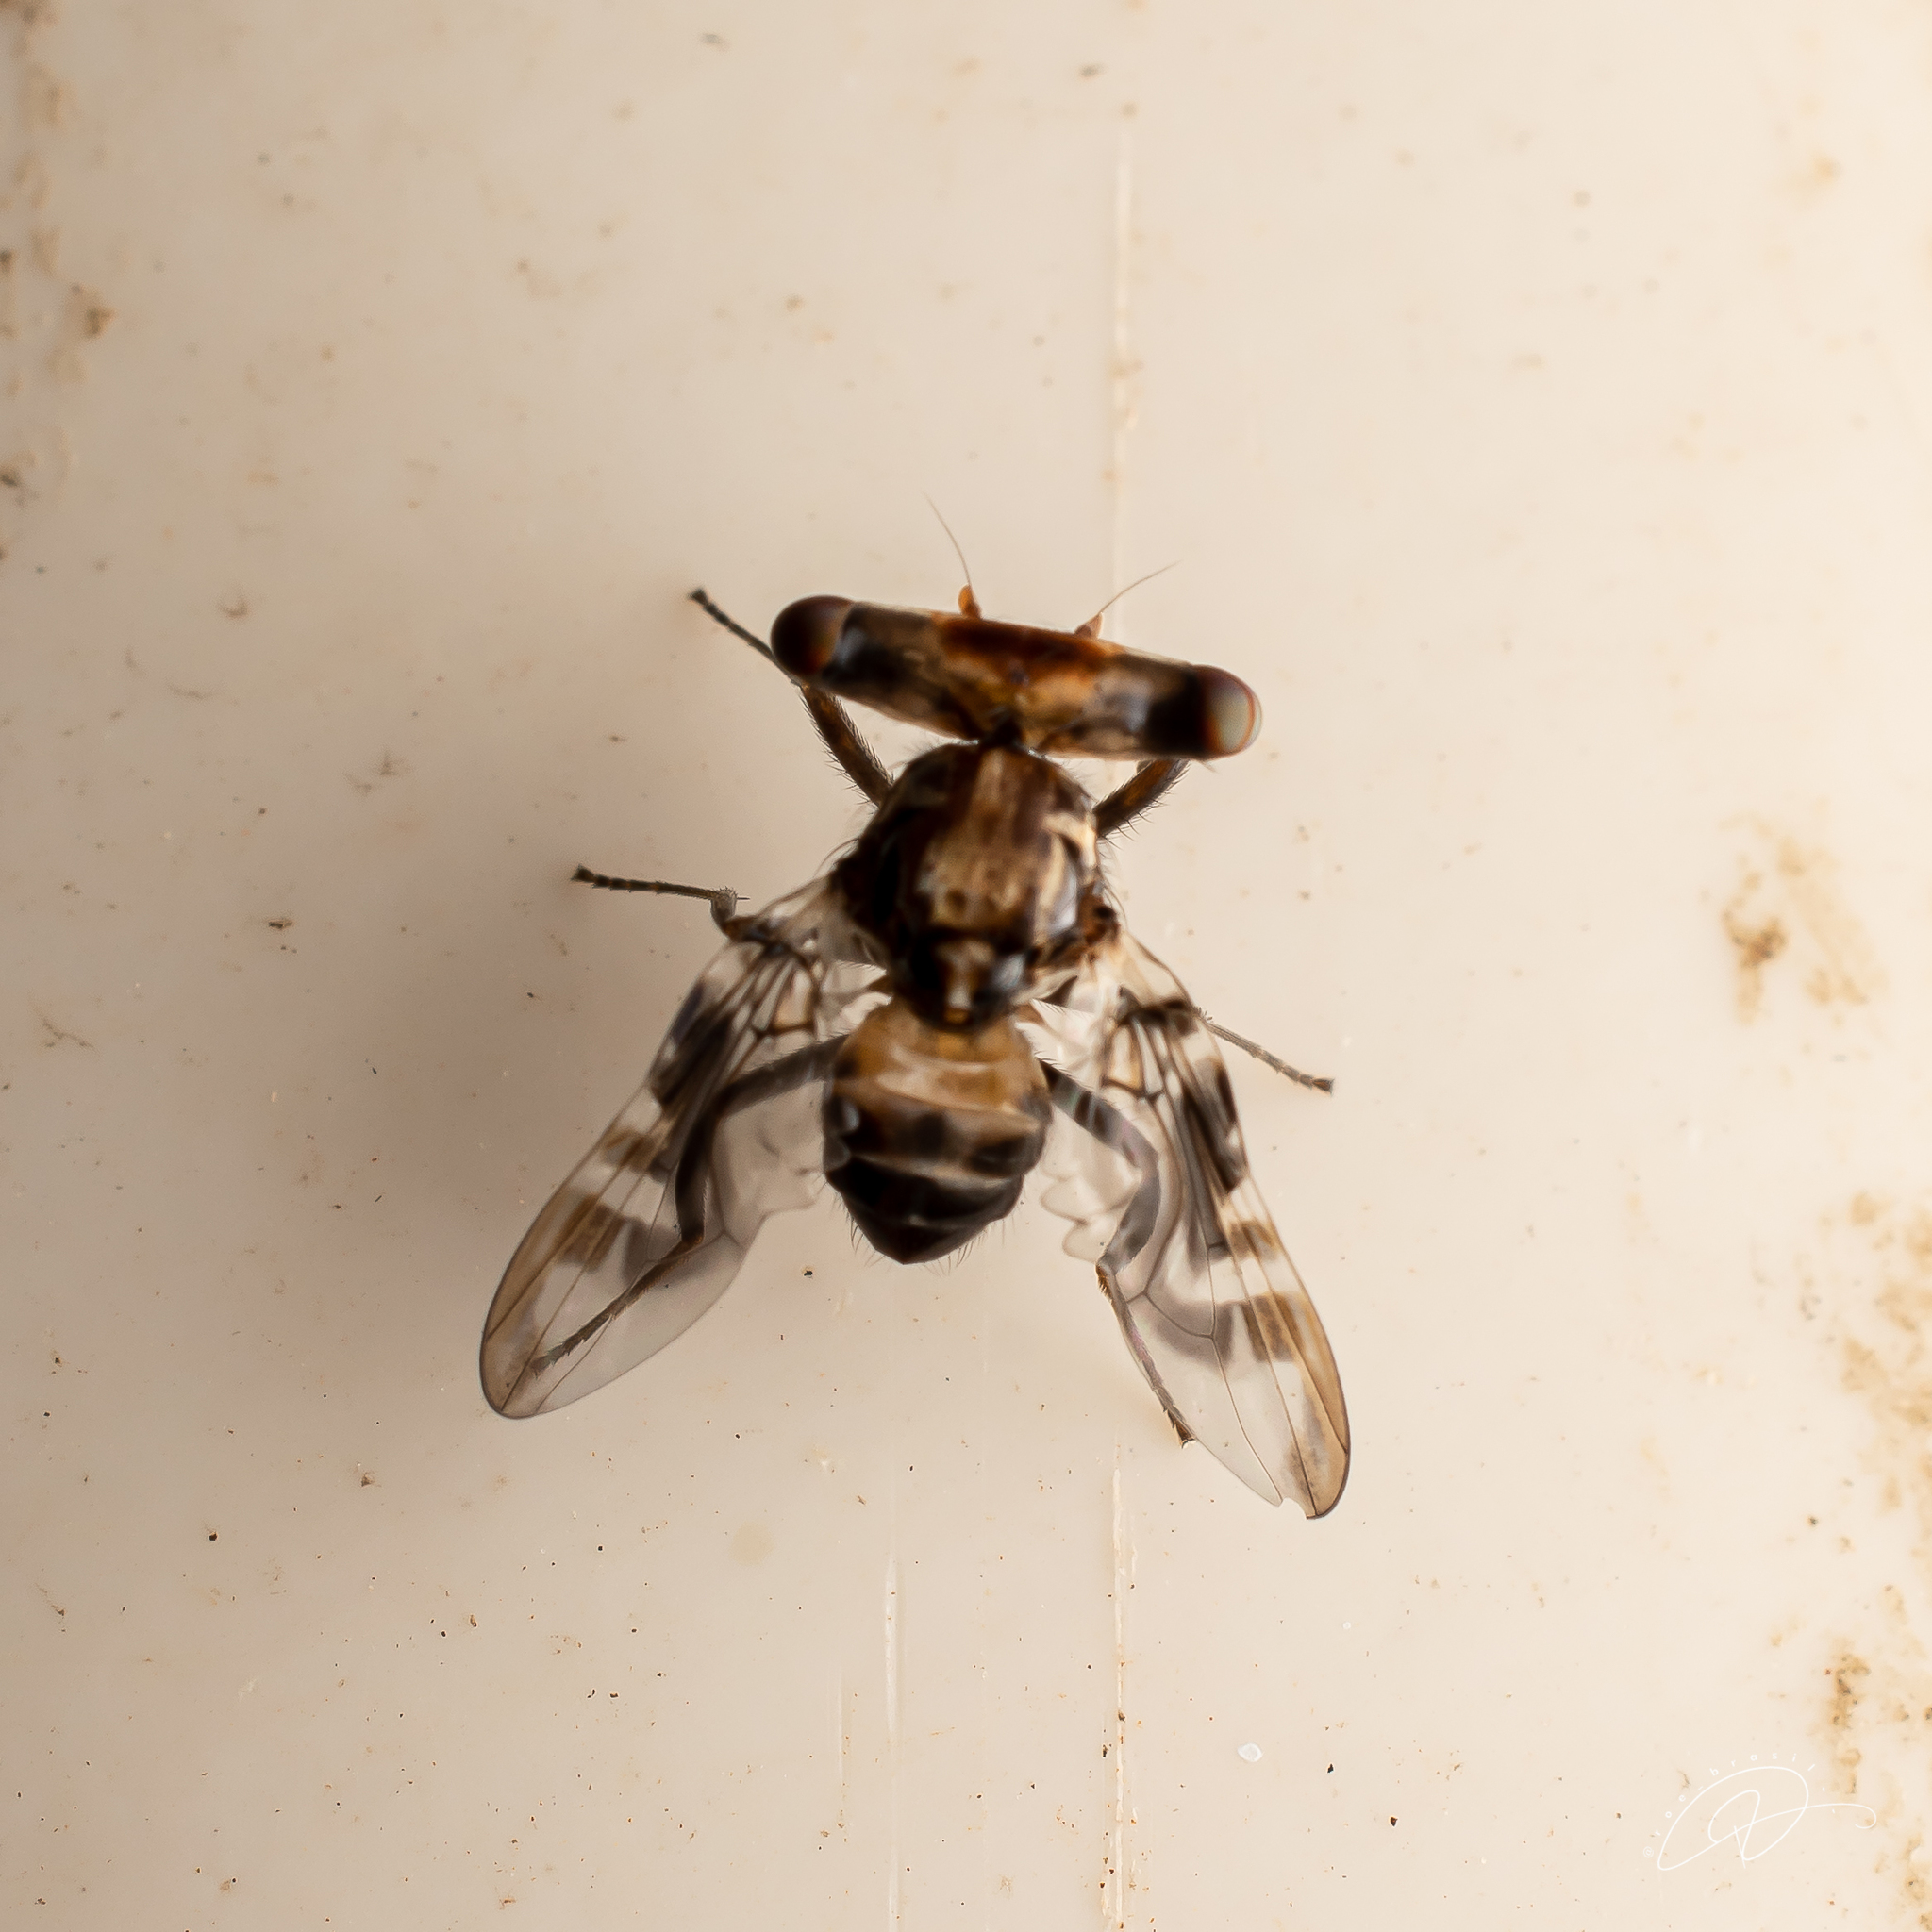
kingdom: Animalia
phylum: Arthropoda
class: Insecta
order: Diptera
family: Ulidiidae
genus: Plagiocephalus
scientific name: Plagiocephalus lobularis
